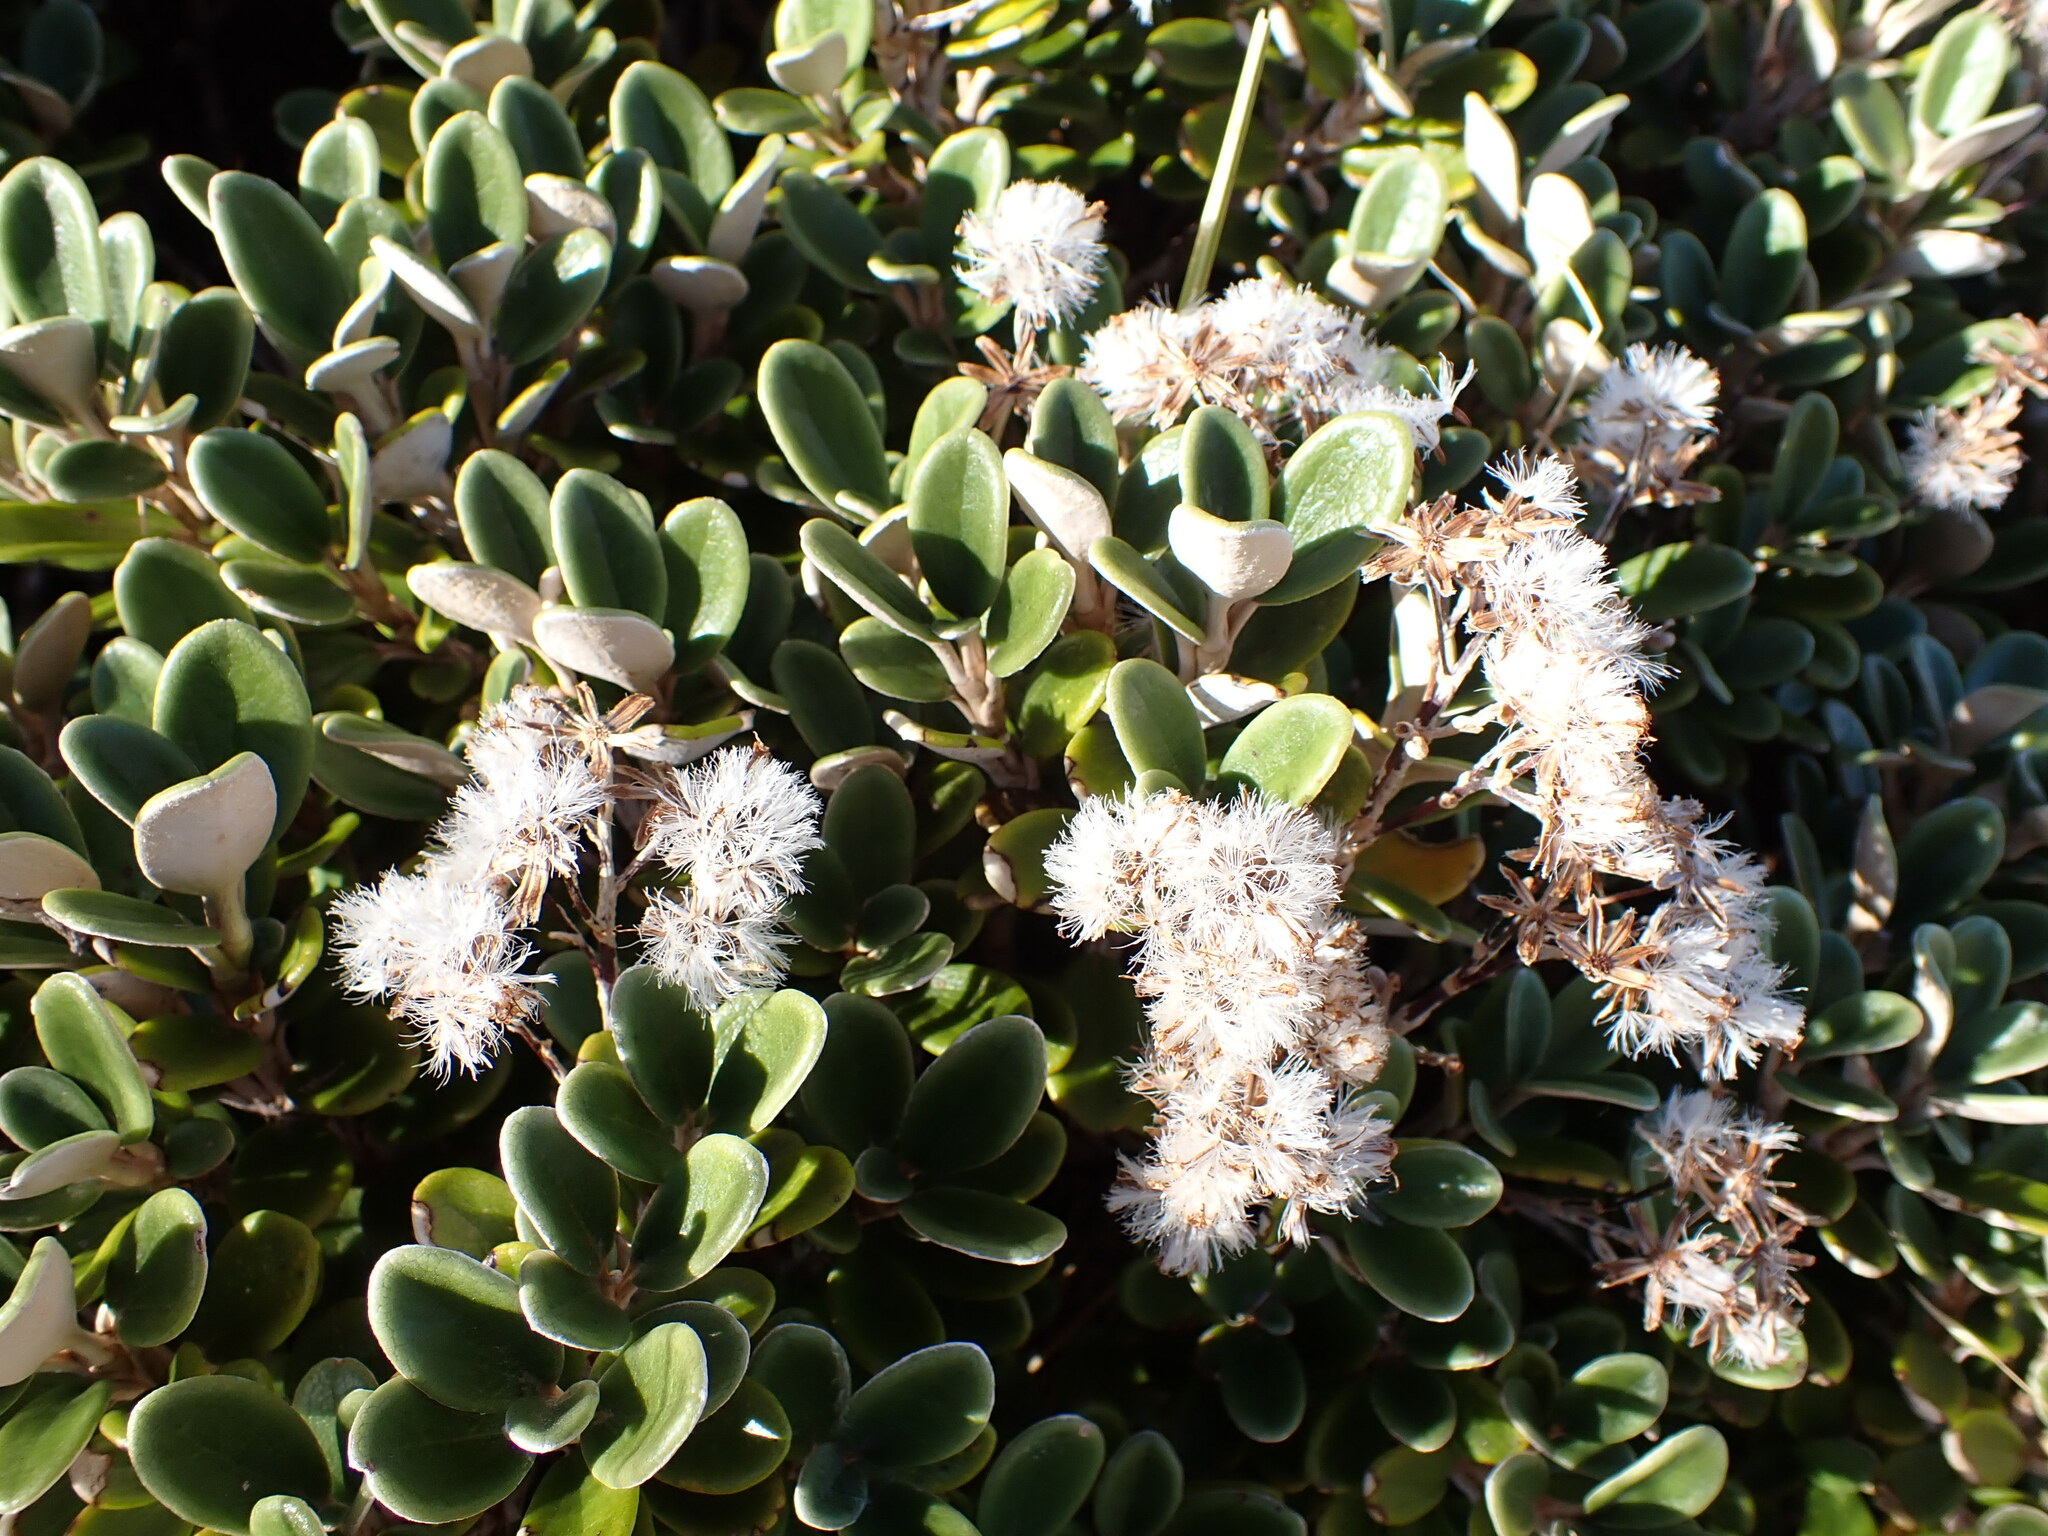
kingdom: Plantae
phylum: Tracheophyta
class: Magnoliopsida
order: Asterales
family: Asteraceae
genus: Brachyglottis
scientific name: Brachyglottis bidwillii
